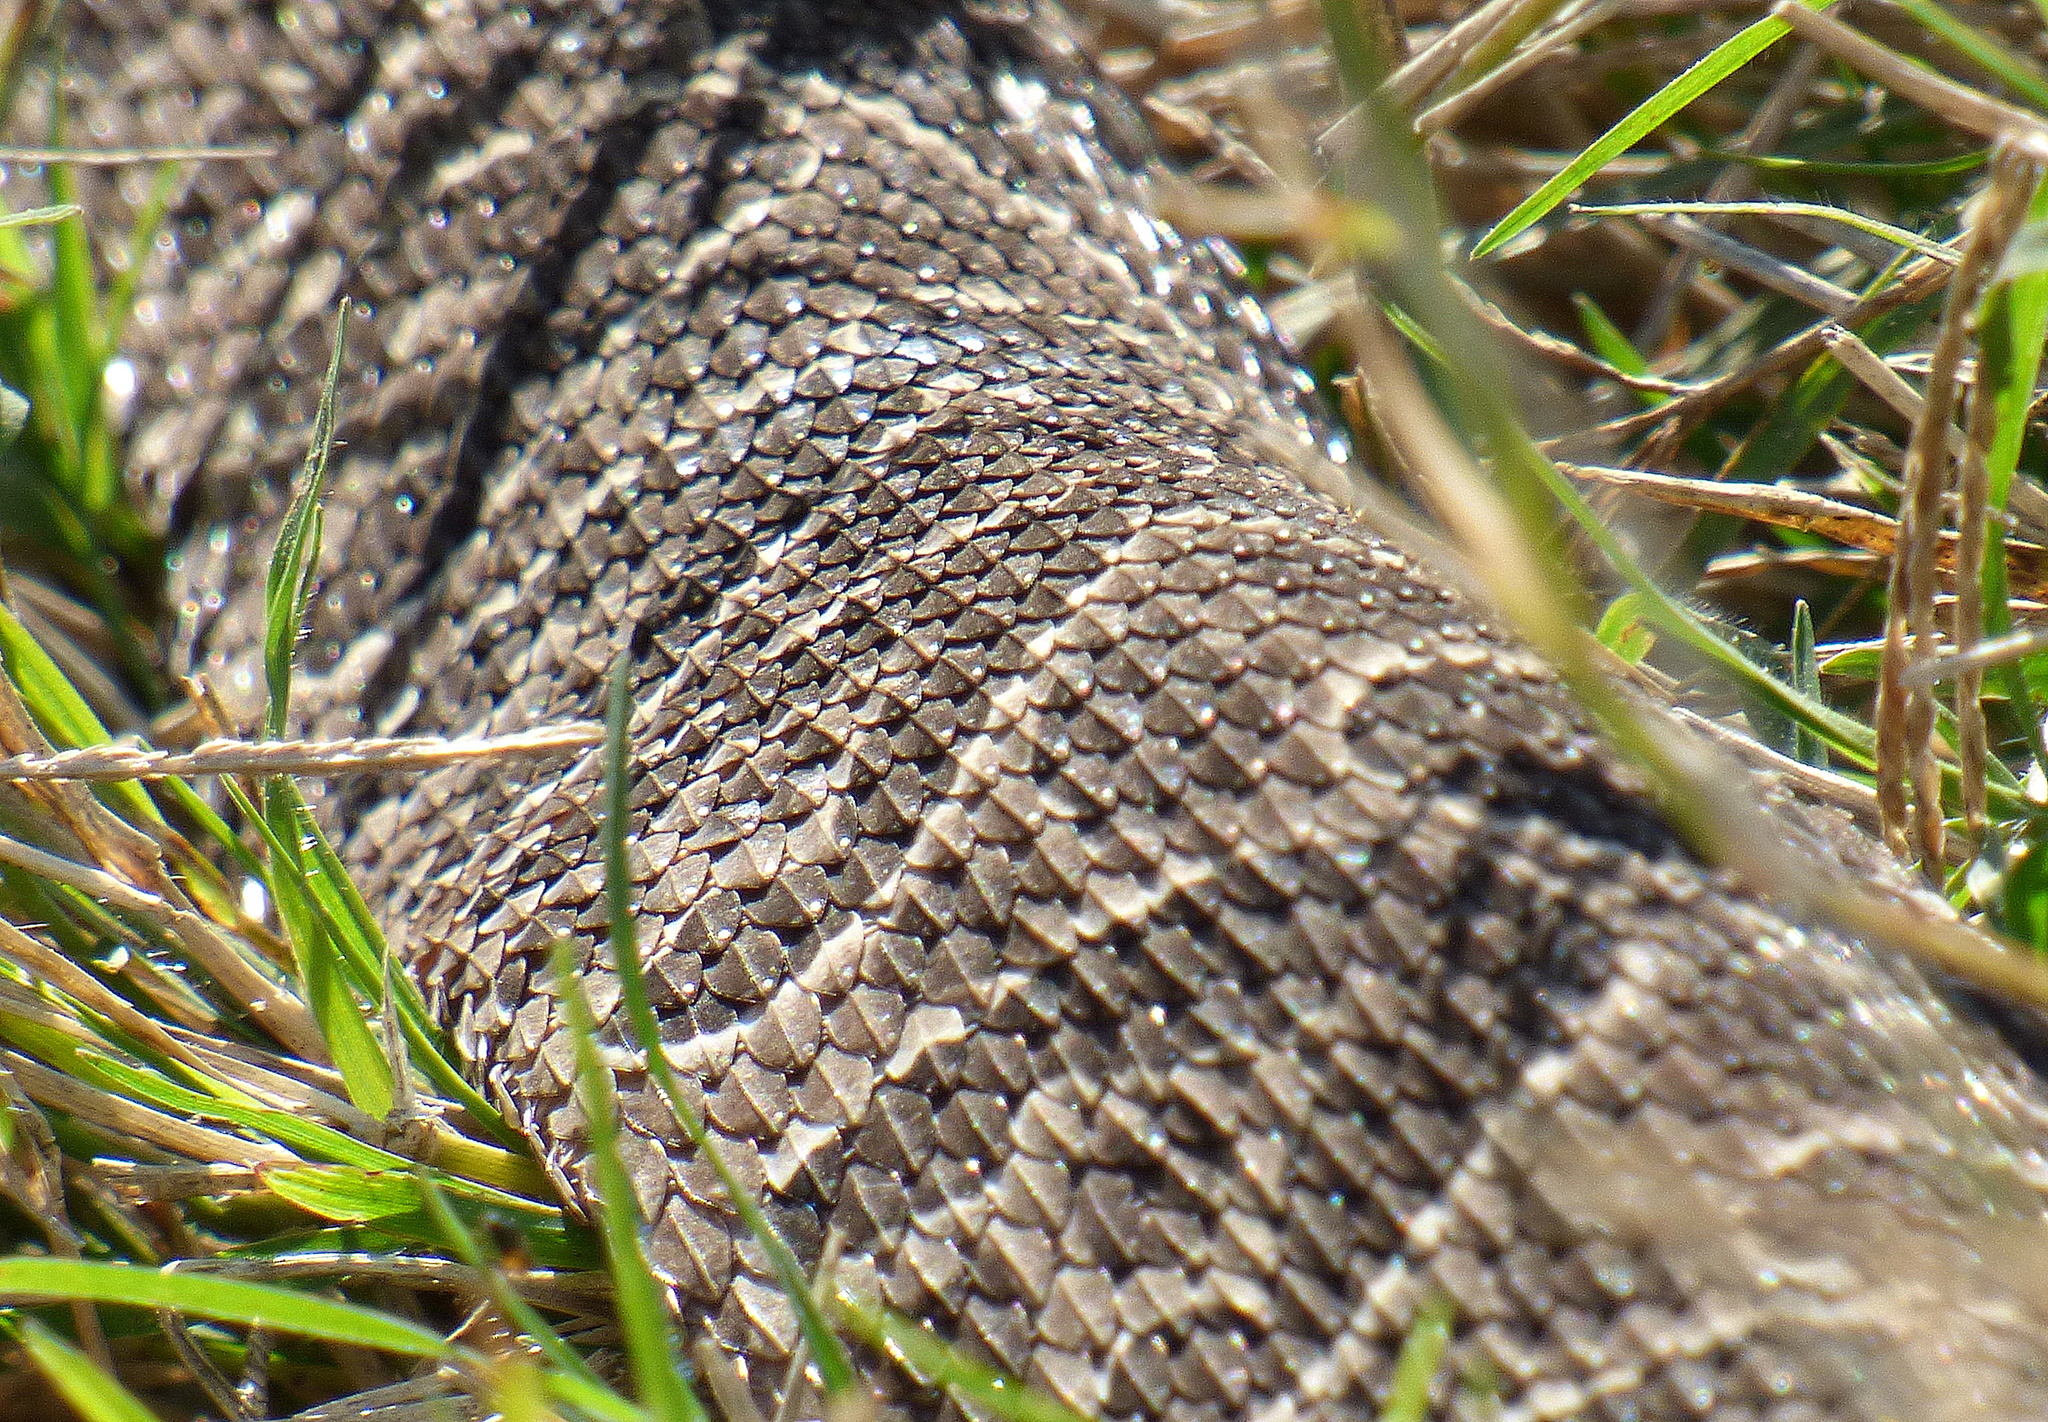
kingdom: Animalia
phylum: Chordata
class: Squamata
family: Viperidae
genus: Bothrops
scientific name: Bothrops alternatus
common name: Urutu
